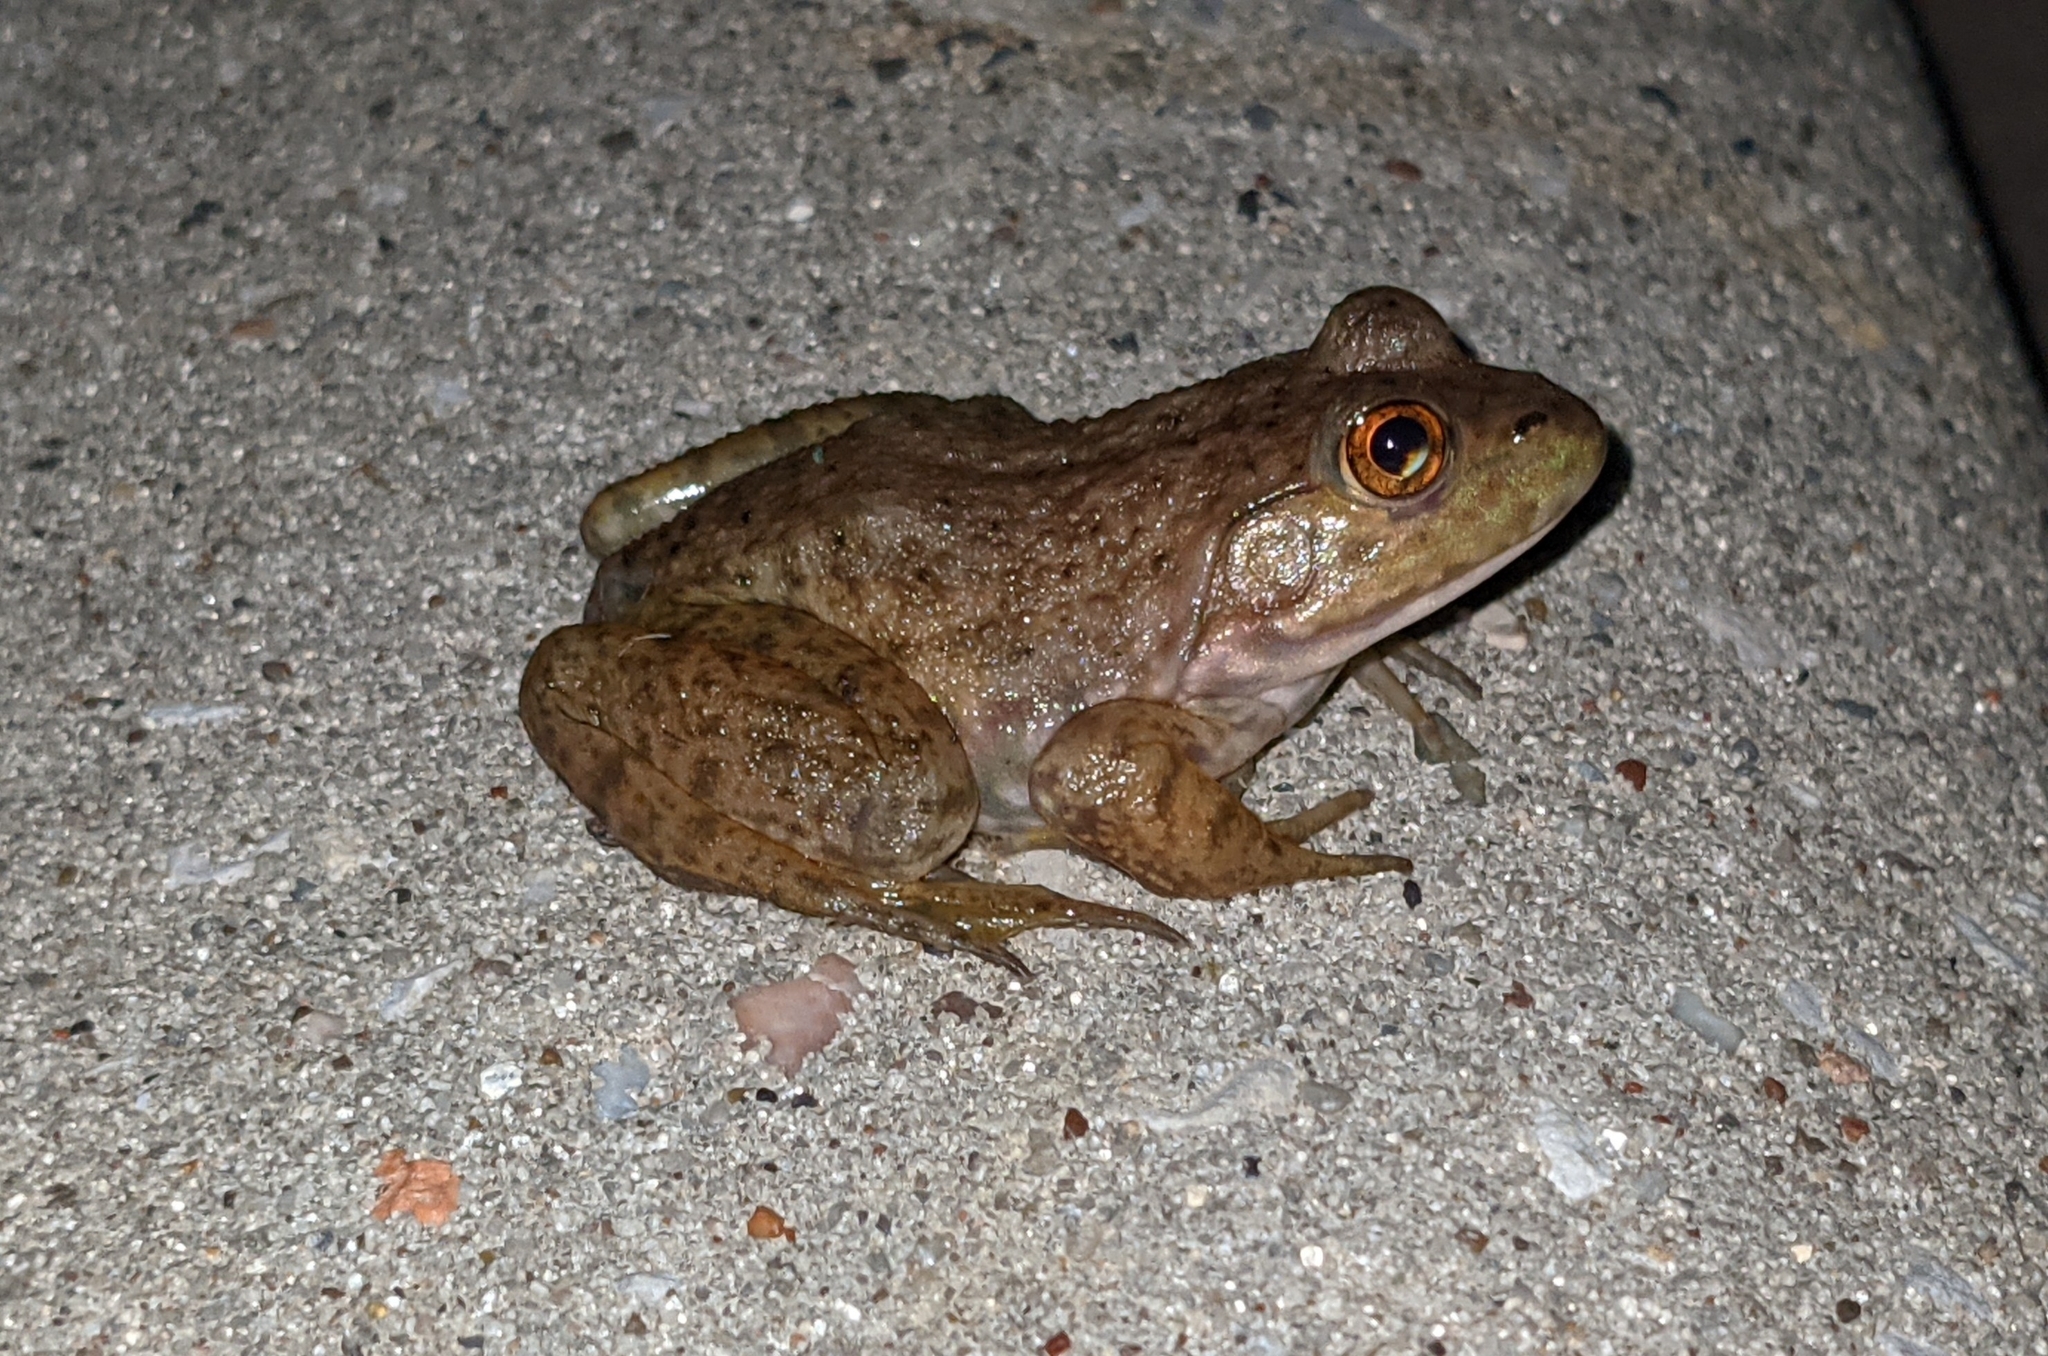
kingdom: Animalia
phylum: Chordata
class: Amphibia
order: Anura
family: Ranidae
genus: Lithobates
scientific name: Lithobates catesbeianus
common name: American bullfrog
